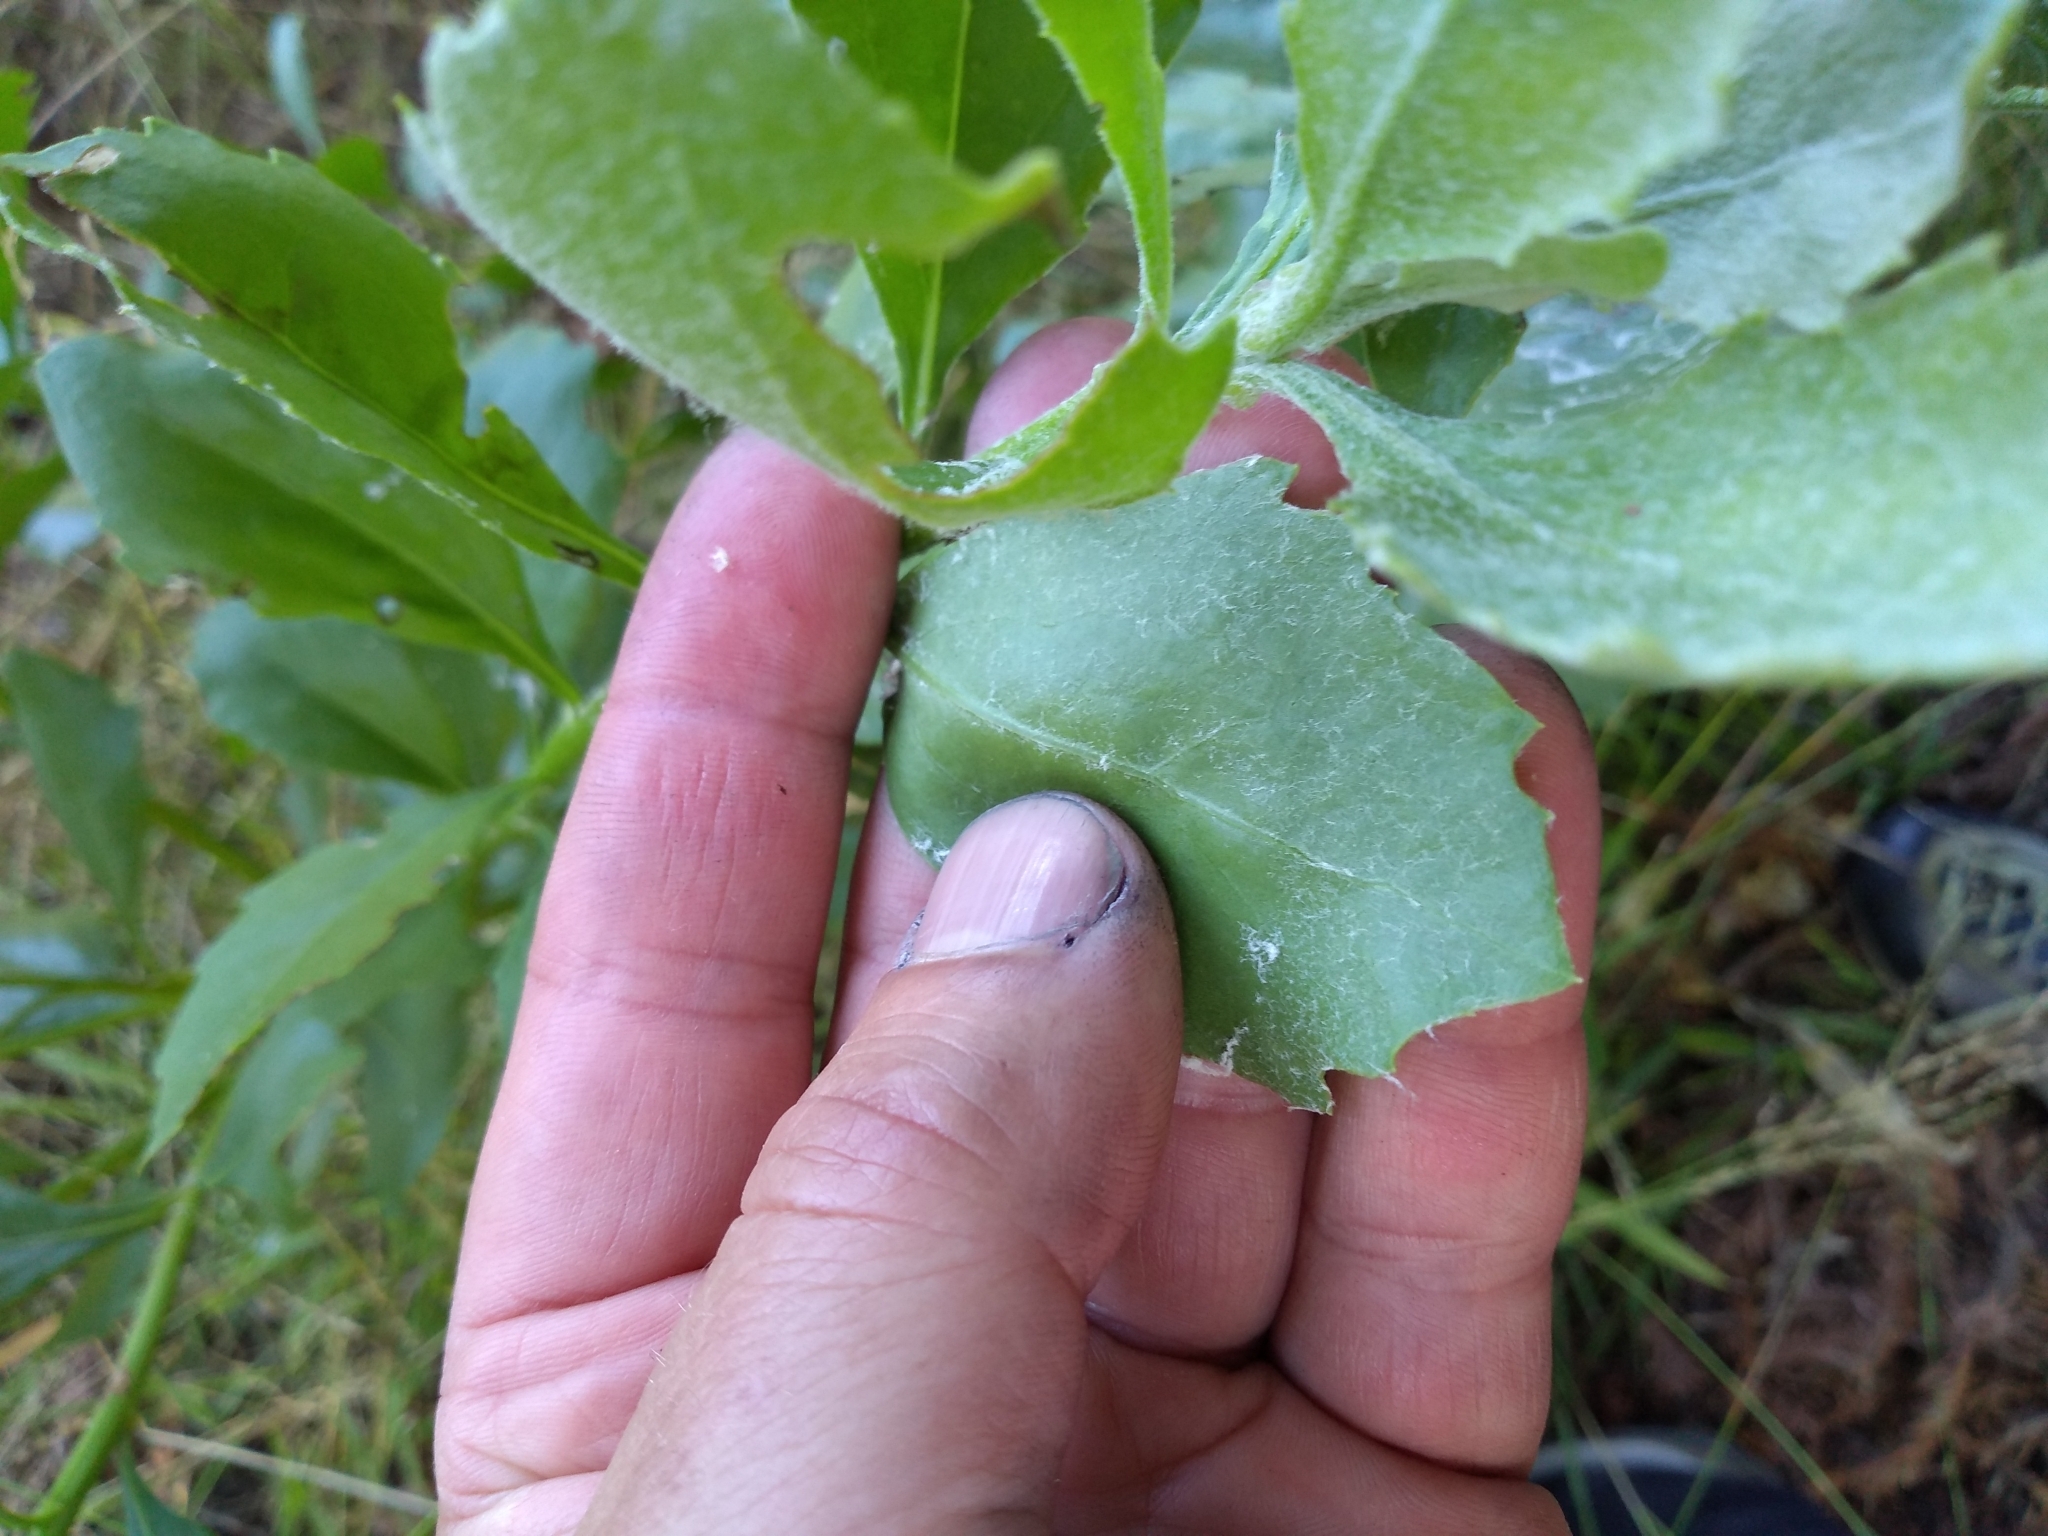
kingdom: Plantae
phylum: Tracheophyta
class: Magnoliopsida
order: Asterales
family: Asteraceae
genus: Osteospermum
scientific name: Osteospermum moniliferum
